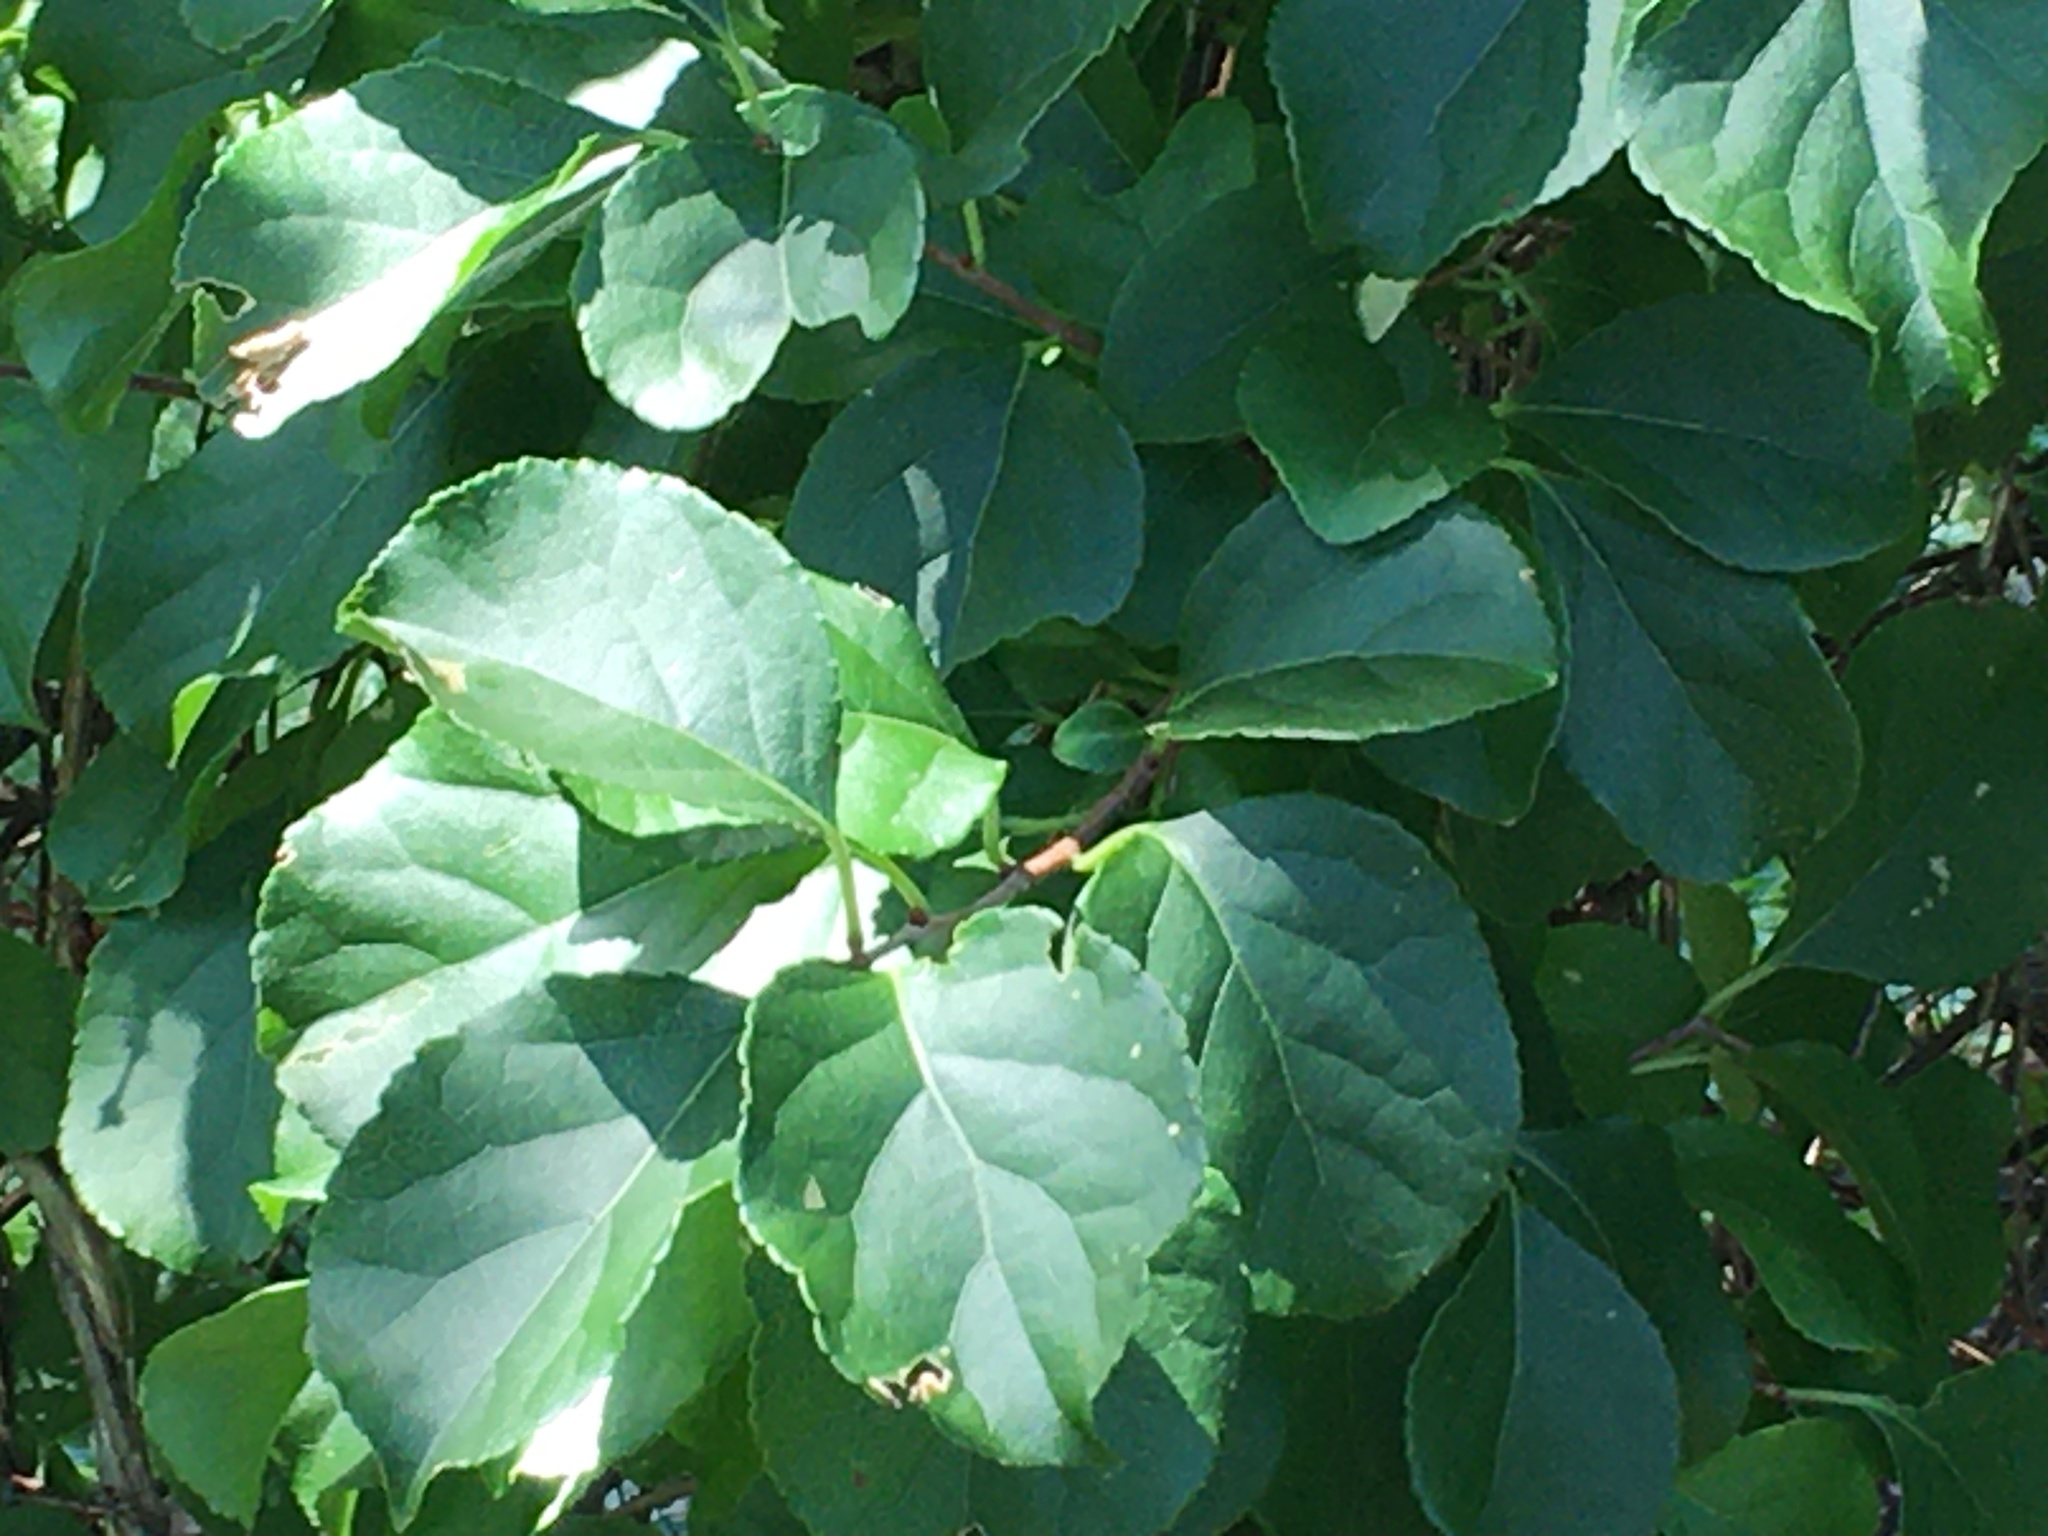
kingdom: Plantae
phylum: Tracheophyta
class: Magnoliopsida
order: Celastrales
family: Celastraceae
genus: Celastrus
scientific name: Celastrus orbiculatus
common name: Oriental bittersweet
